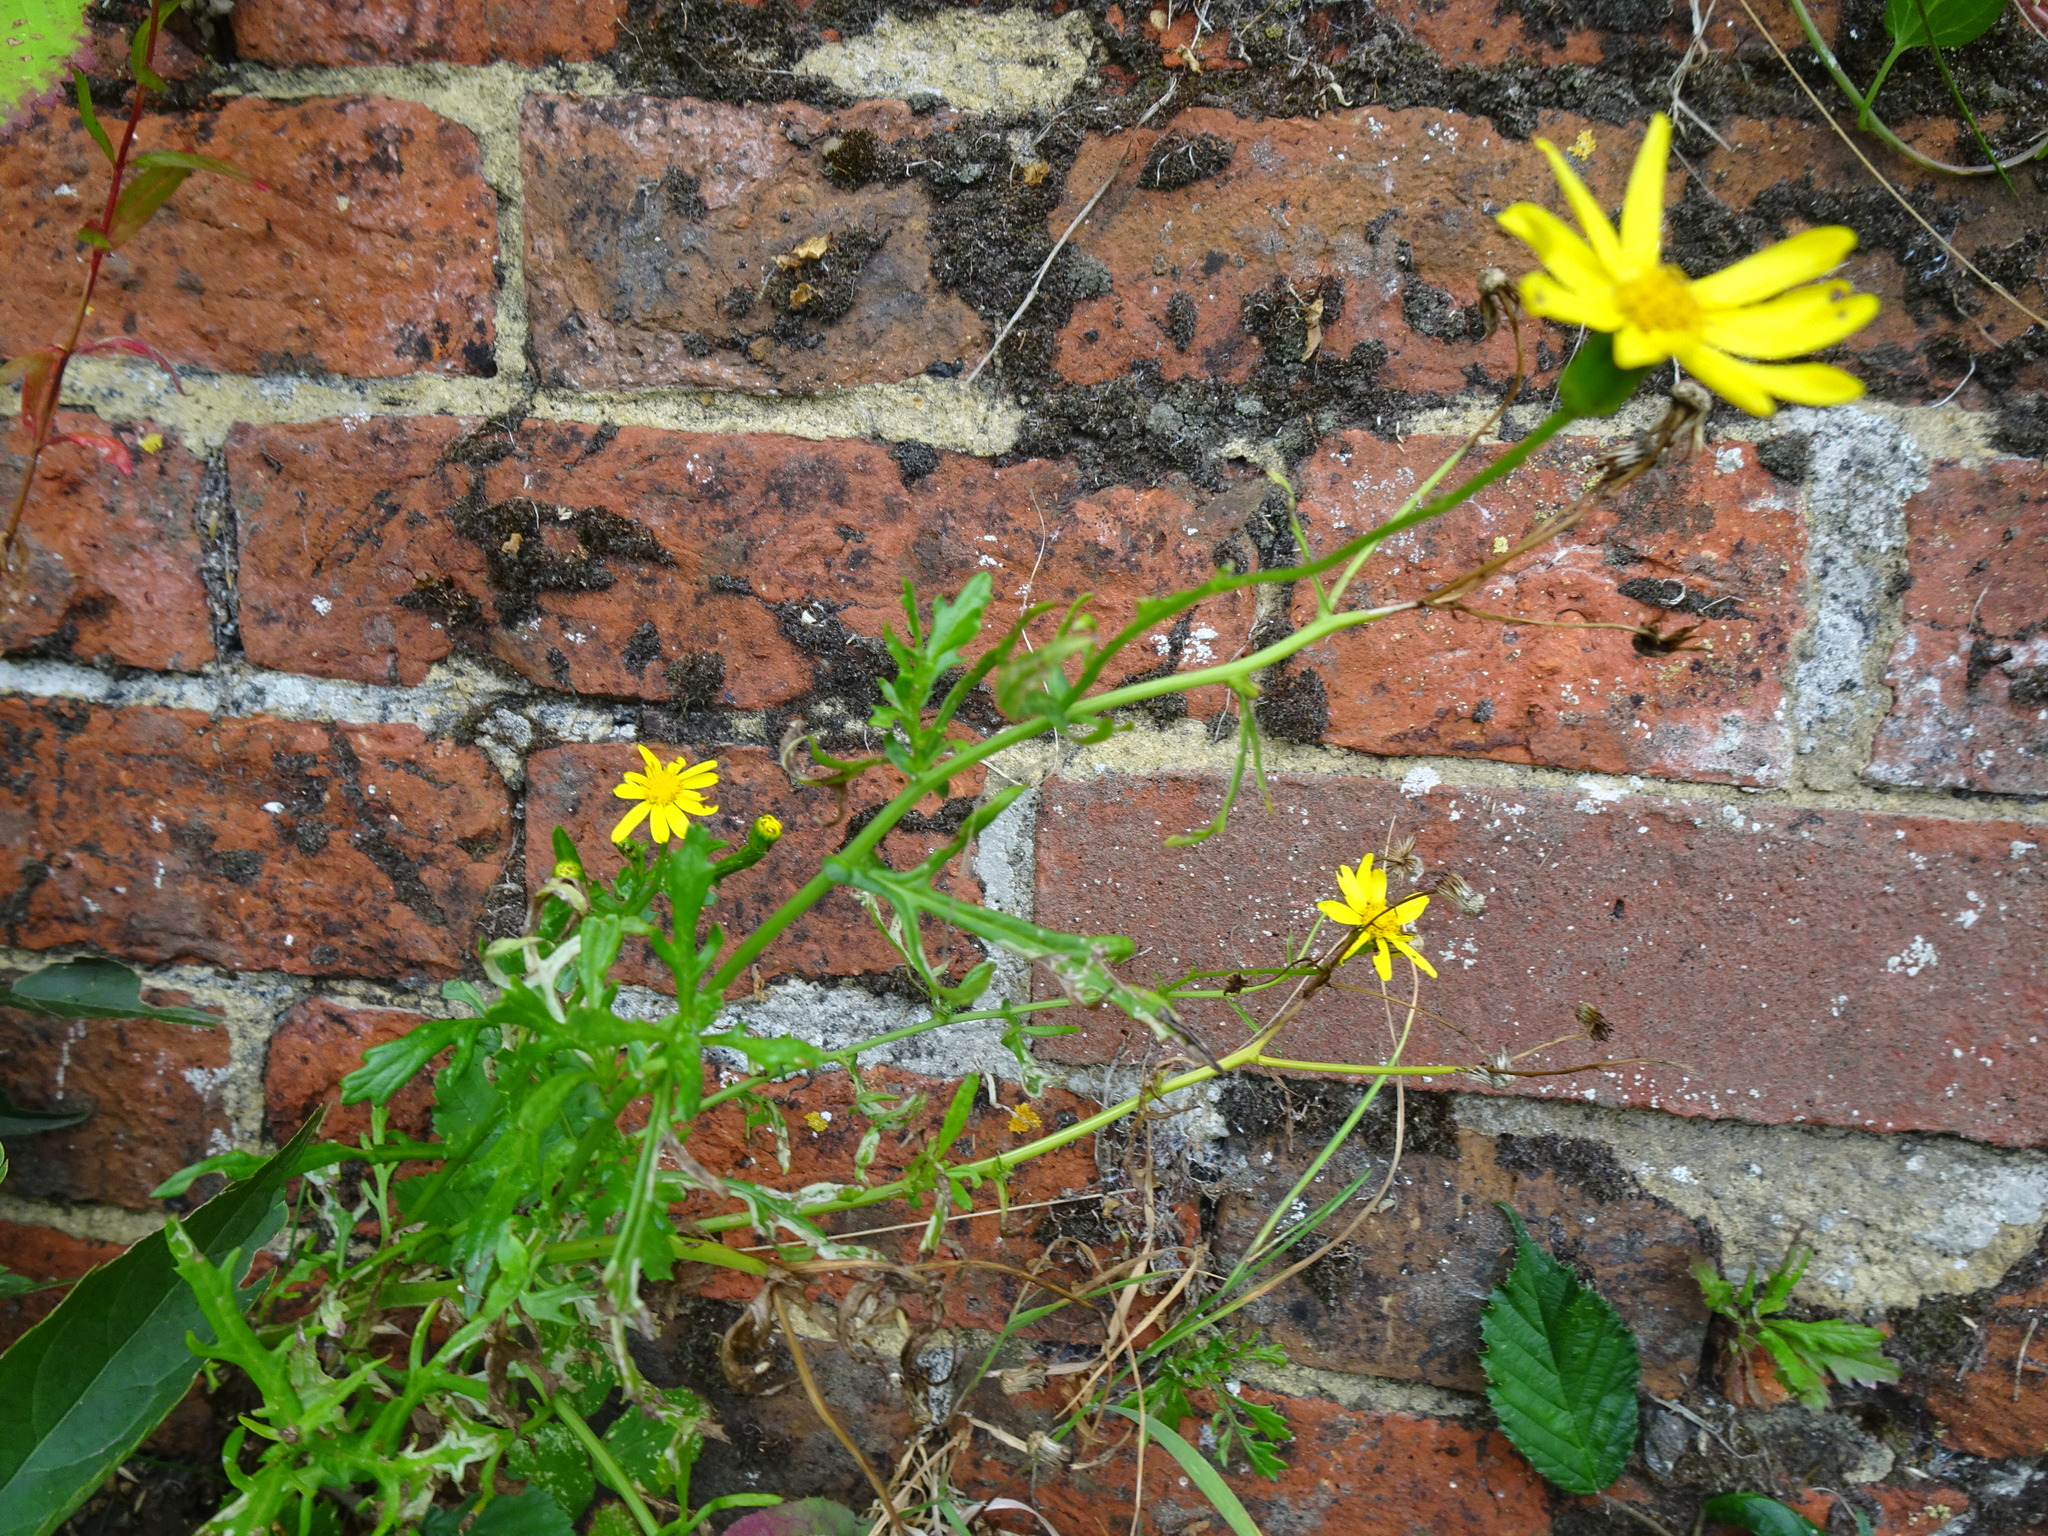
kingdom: Plantae
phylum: Tracheophyta
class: Magnoliopsida
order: Asterales
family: Asteraceae
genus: Senecio
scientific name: Senecio squalidus
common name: Oxford ragwort
